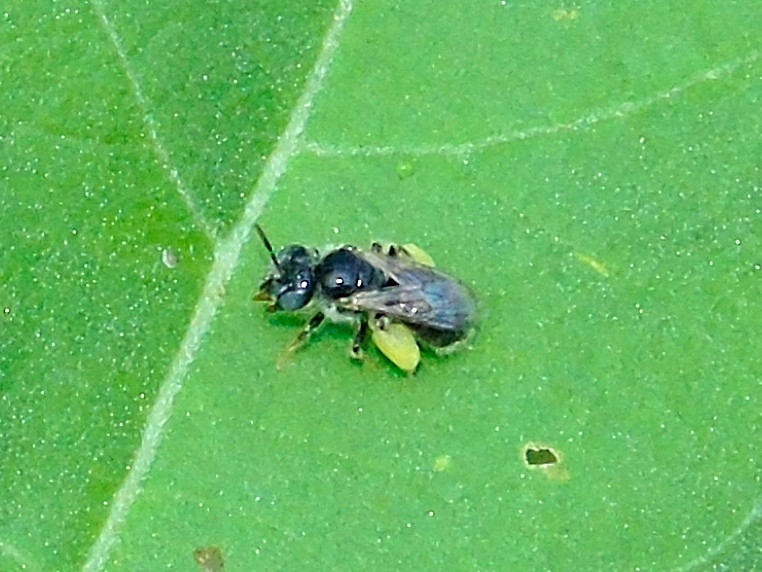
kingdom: Animalia
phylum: Arthropoda
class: Insecta
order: Hymenoptera
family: Andrenidae
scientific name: Andrenidae
